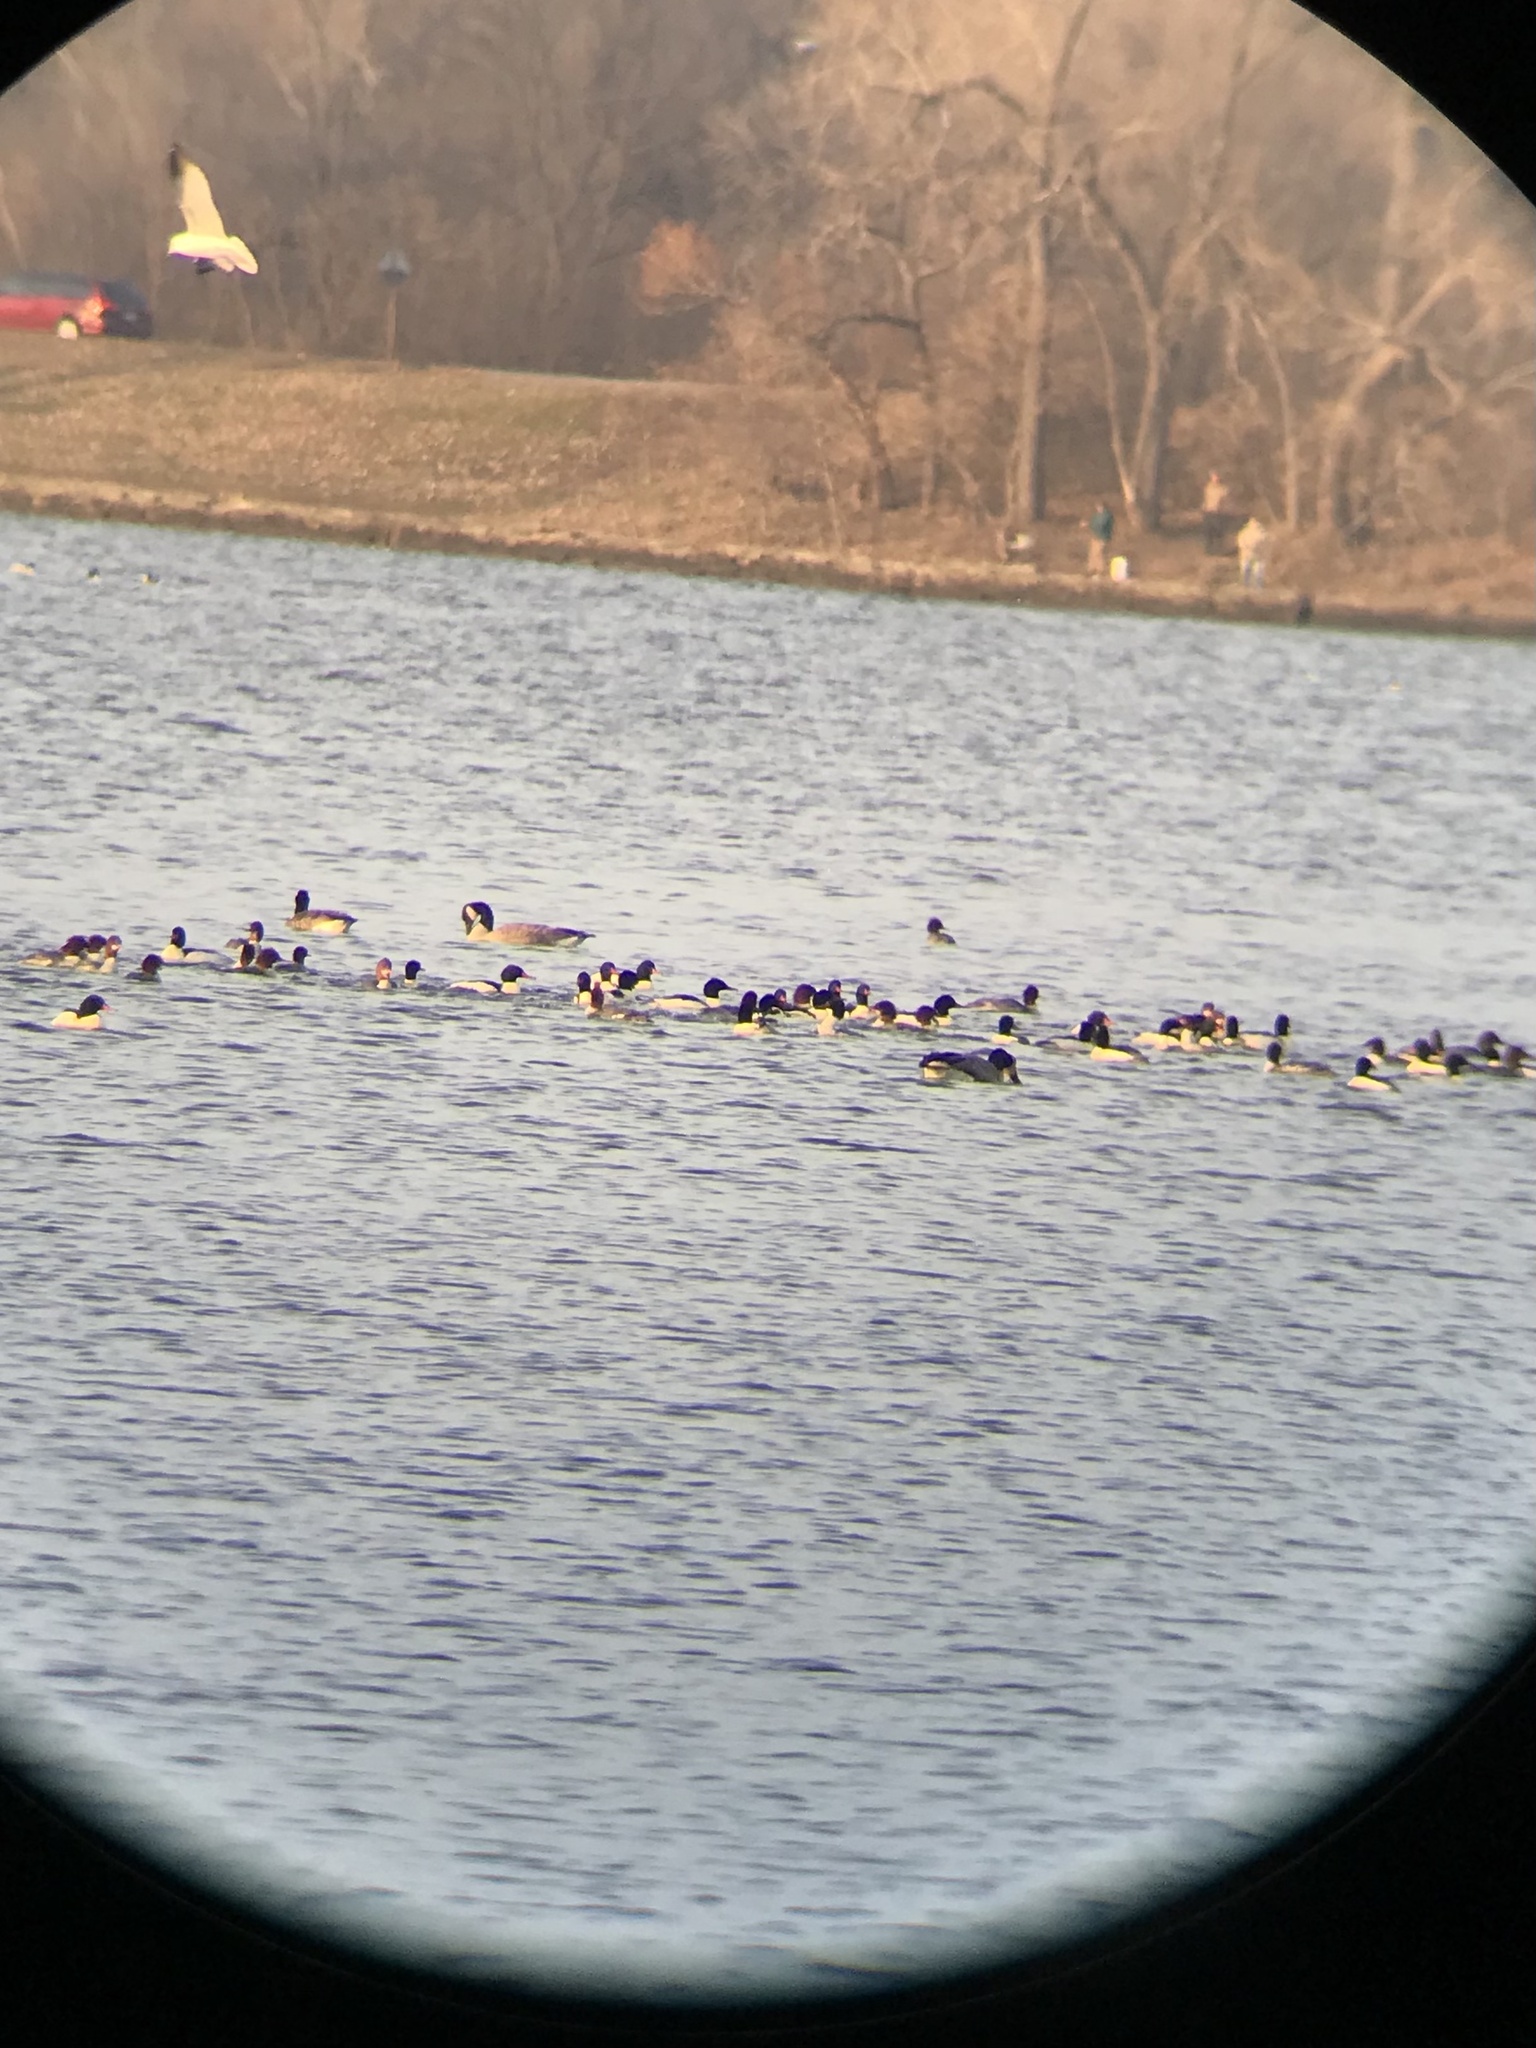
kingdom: Animalia
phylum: Chordata
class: Aves
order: Anseriformes
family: Anatidae
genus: Mergus
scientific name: Mergus merganser
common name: Common merganser
